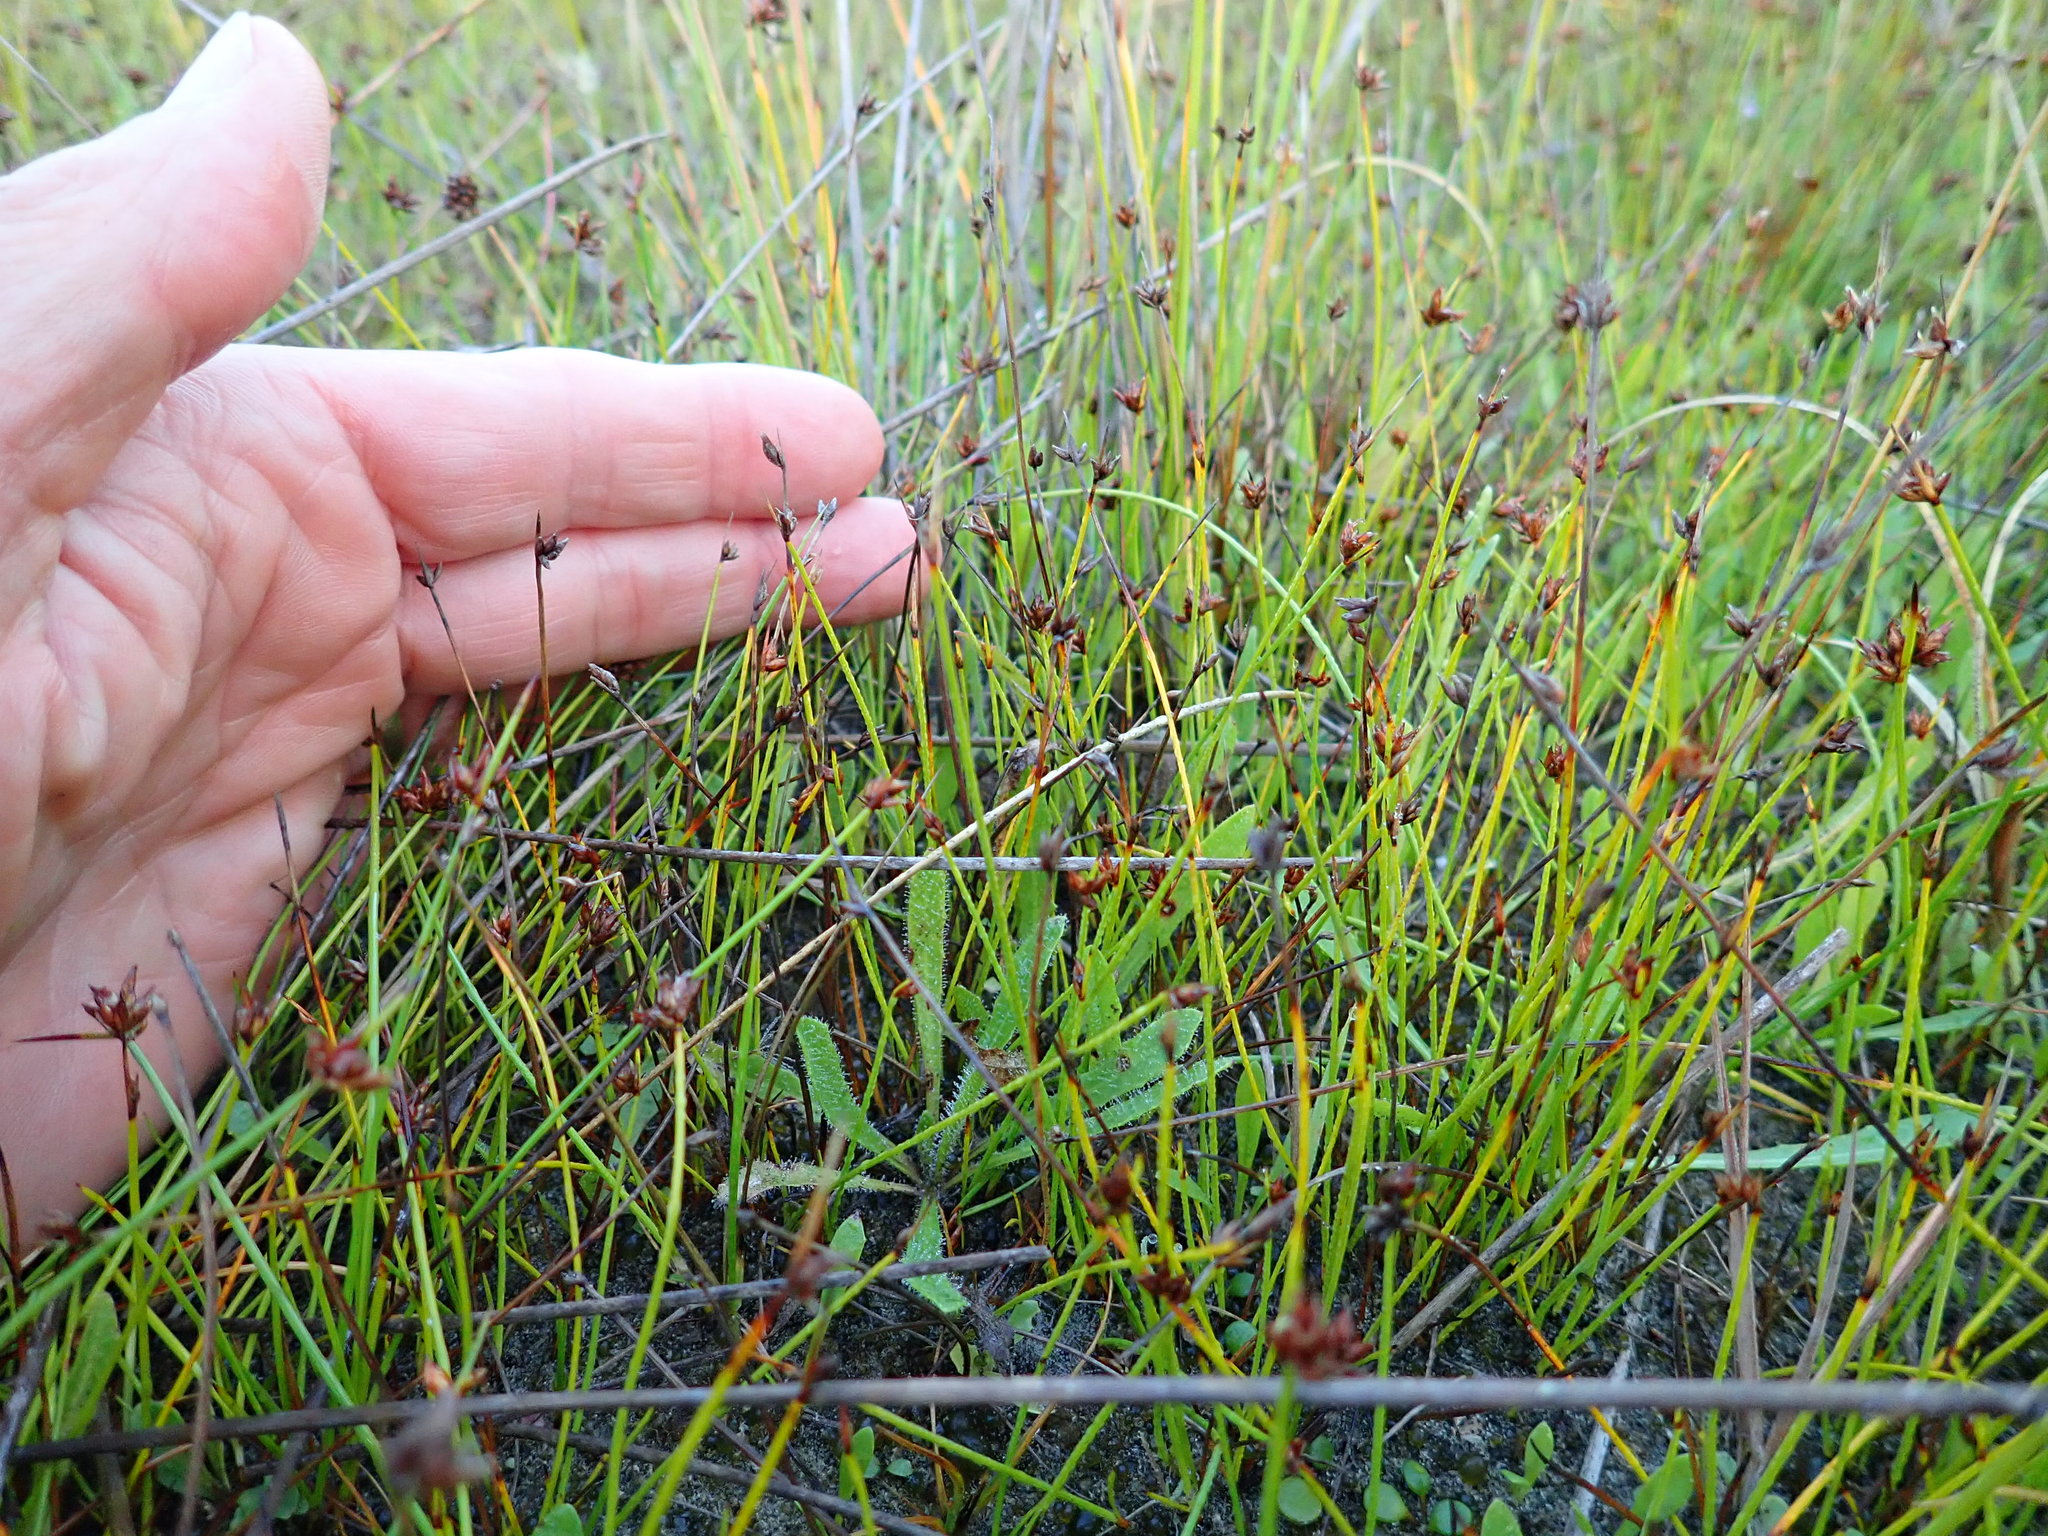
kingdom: Plantae
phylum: Tracheophyta
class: Liliopsida
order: Poales
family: Cyperaceae
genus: Schoenus
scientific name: Schoenus nitens
